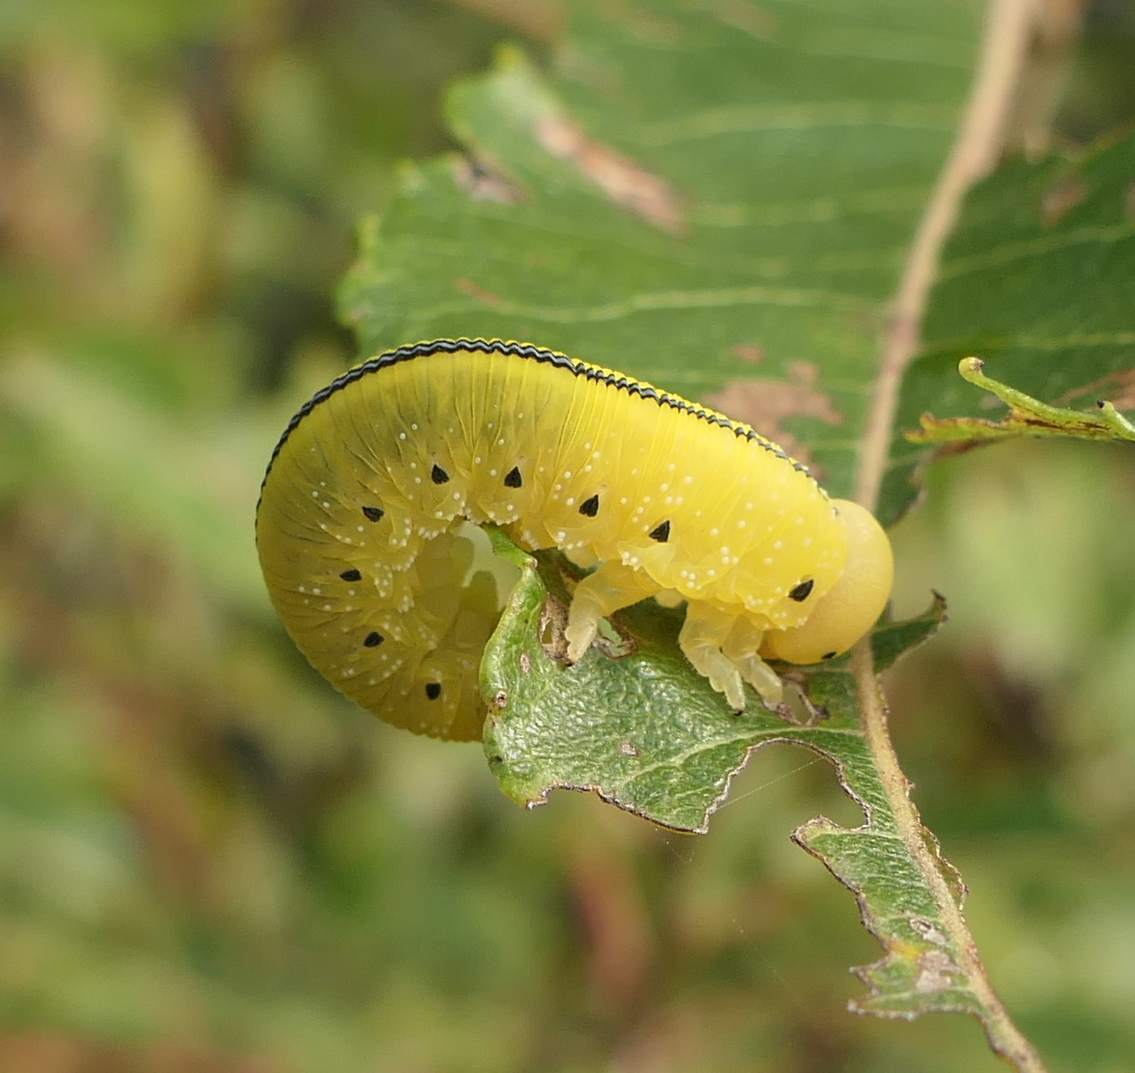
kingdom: Animalia
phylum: Arthropoda
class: Insecta
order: Hymenoptera
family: Cimbicidae
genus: Cimbex
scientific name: Cimbex americana
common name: Elm sawfly
